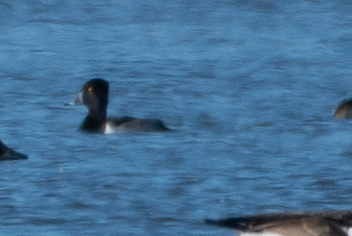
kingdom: Animalia
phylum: Chordata
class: Aves
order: Anseriformes
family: Anatidae
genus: Aythya
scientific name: Aythya collaris
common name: Ring-necked duck
